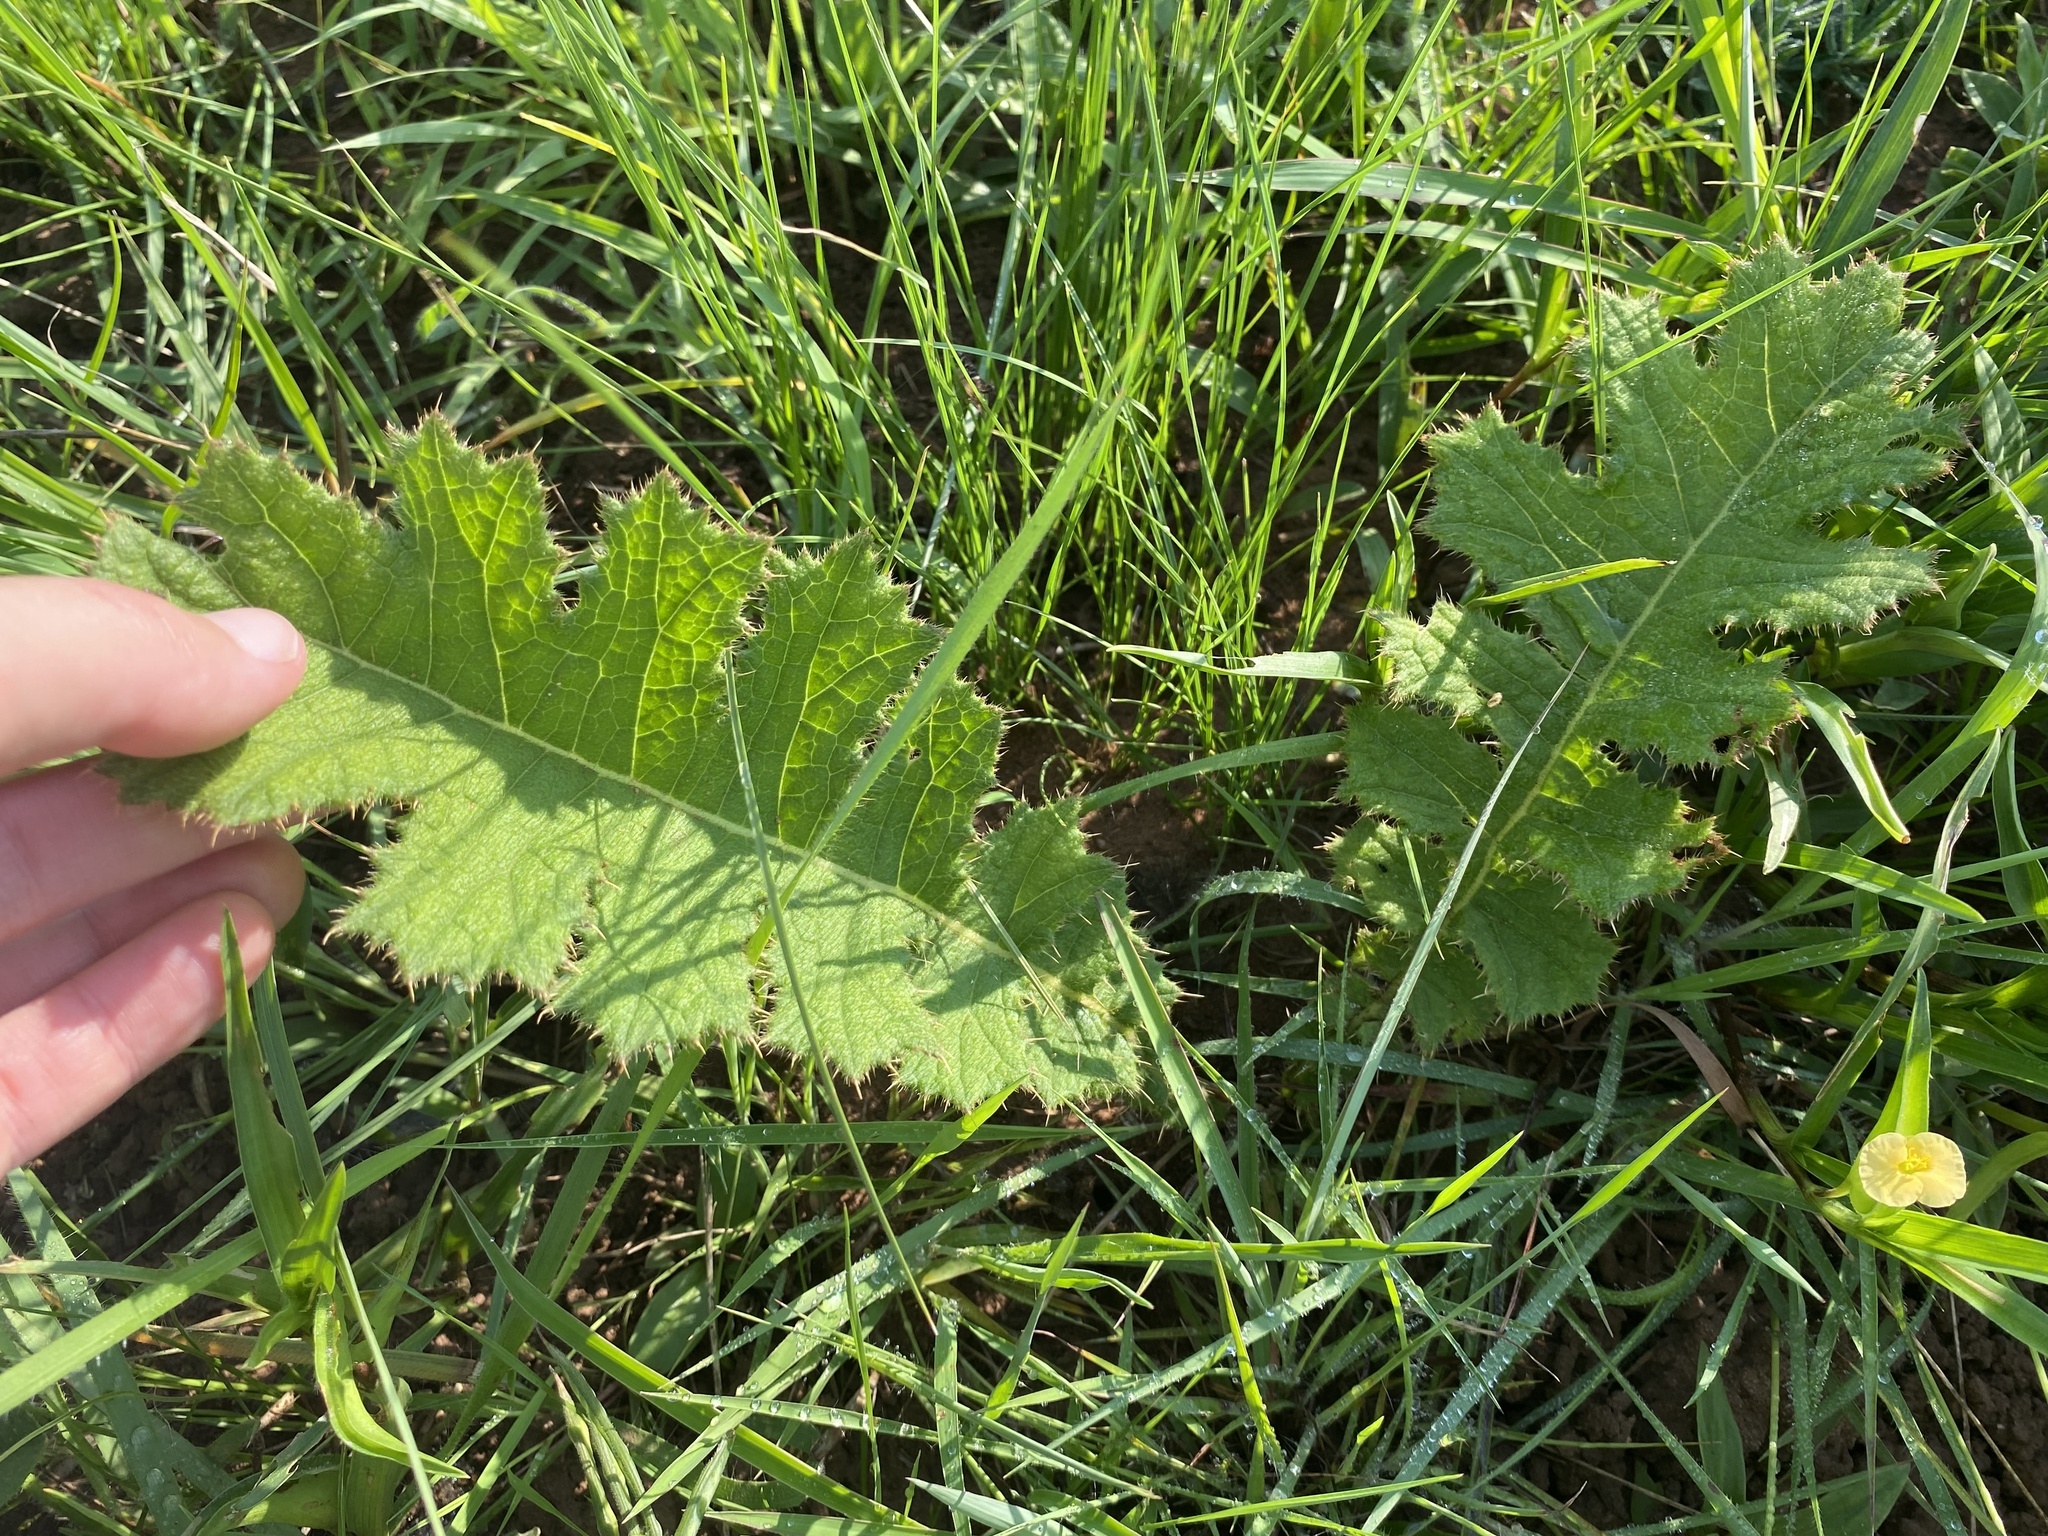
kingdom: Plantae
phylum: Tracheophyta
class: Magnoliopsida
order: Asterales
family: Asteraceae
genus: Berkheya
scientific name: Berkheya umbellata
